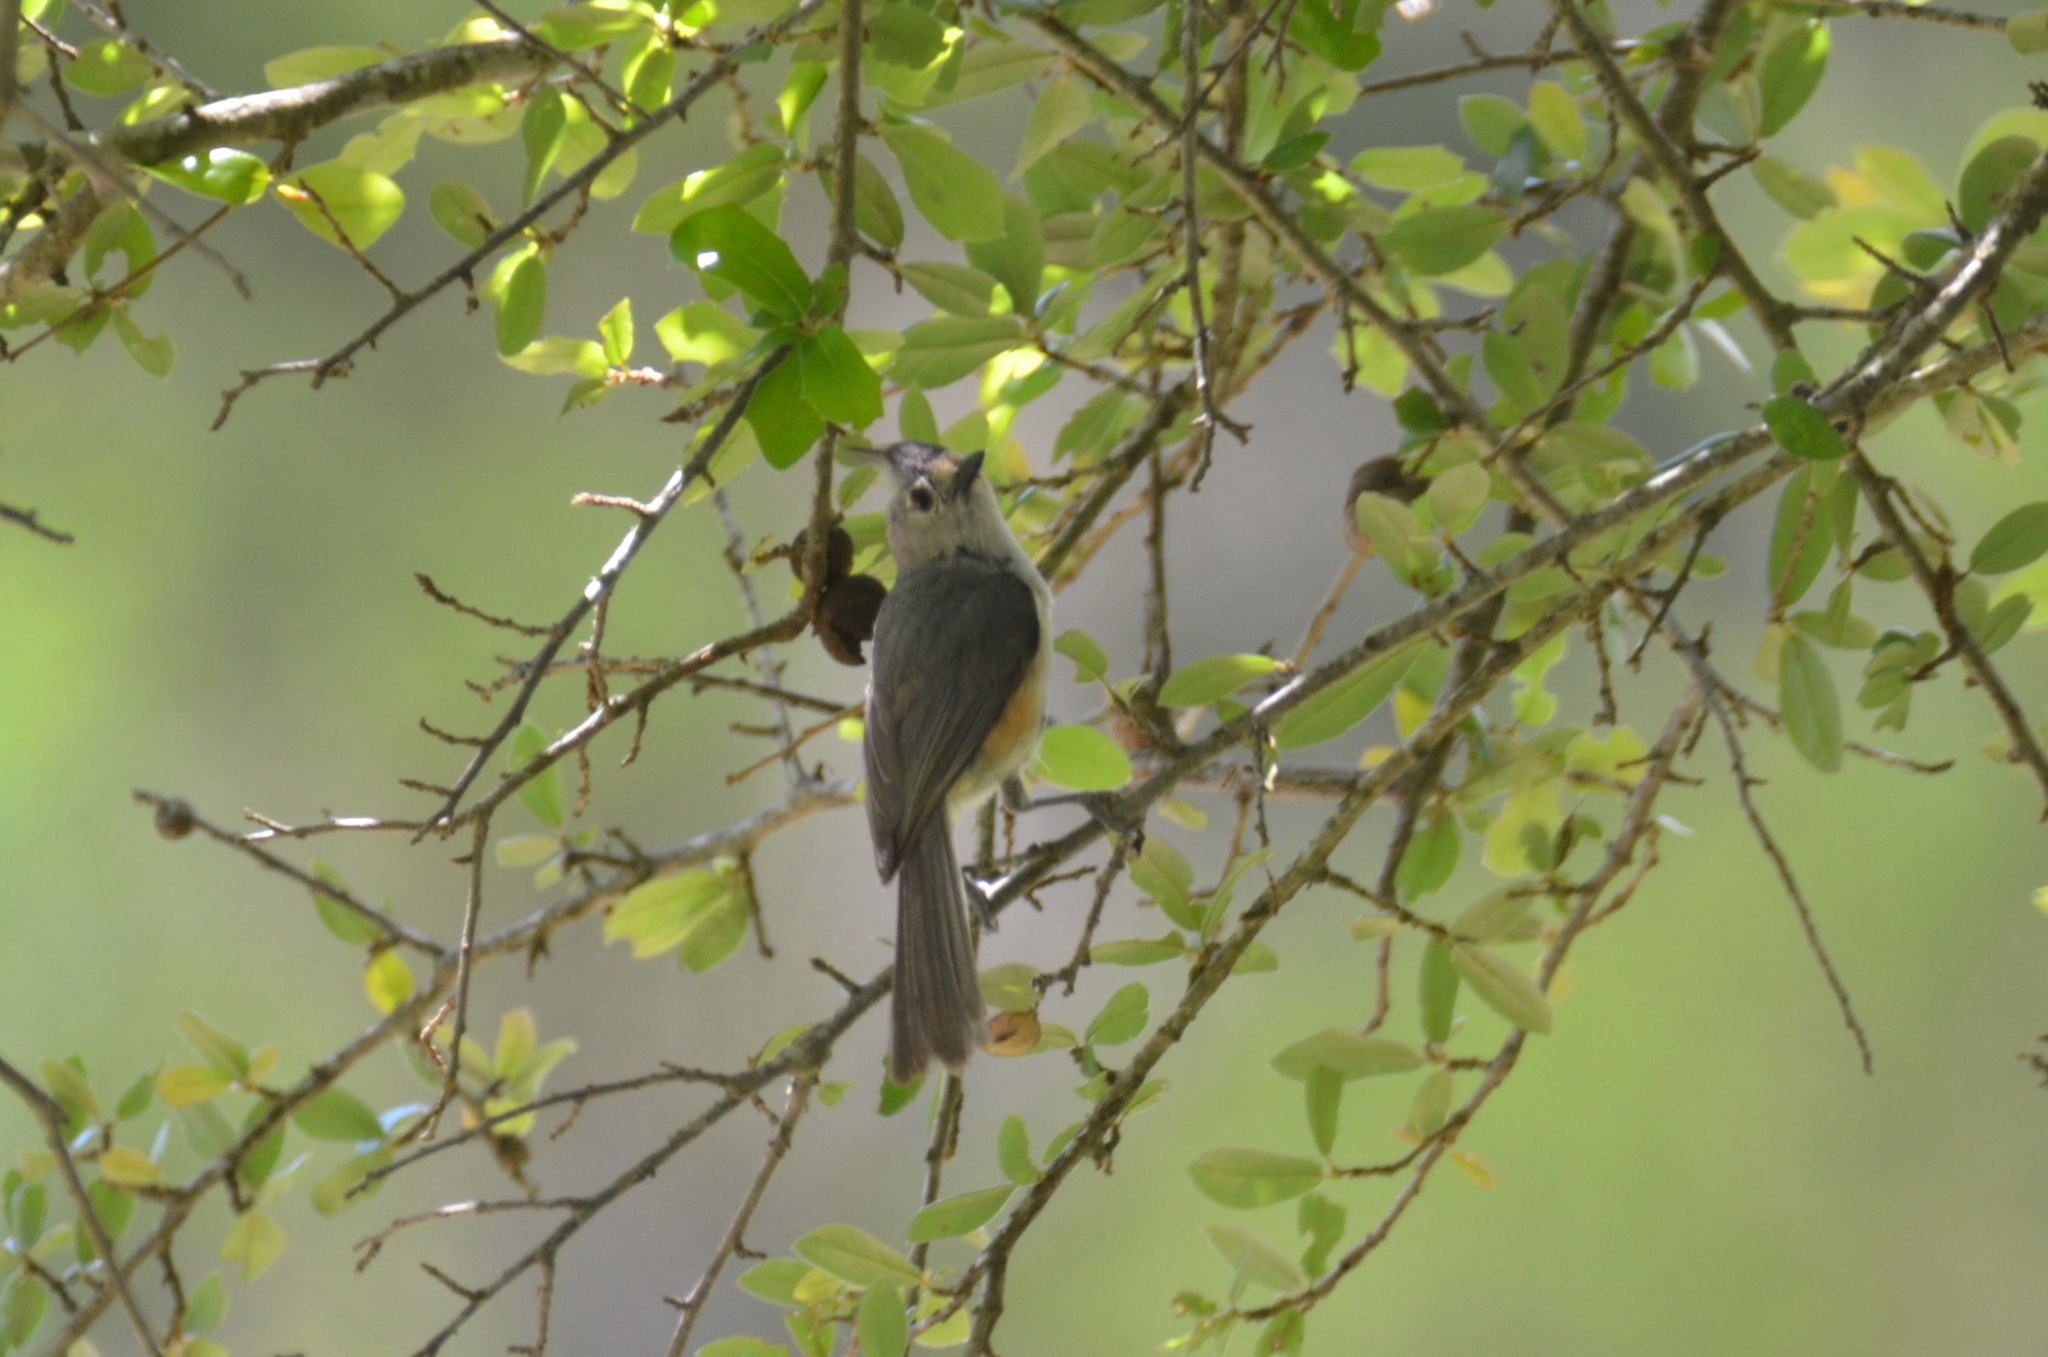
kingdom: Animalia
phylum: Chordata
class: Aves
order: Passeriformes
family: Paridae
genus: Baeolophus
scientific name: Baeolophus atricristatus
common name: Black-crested titmouse
